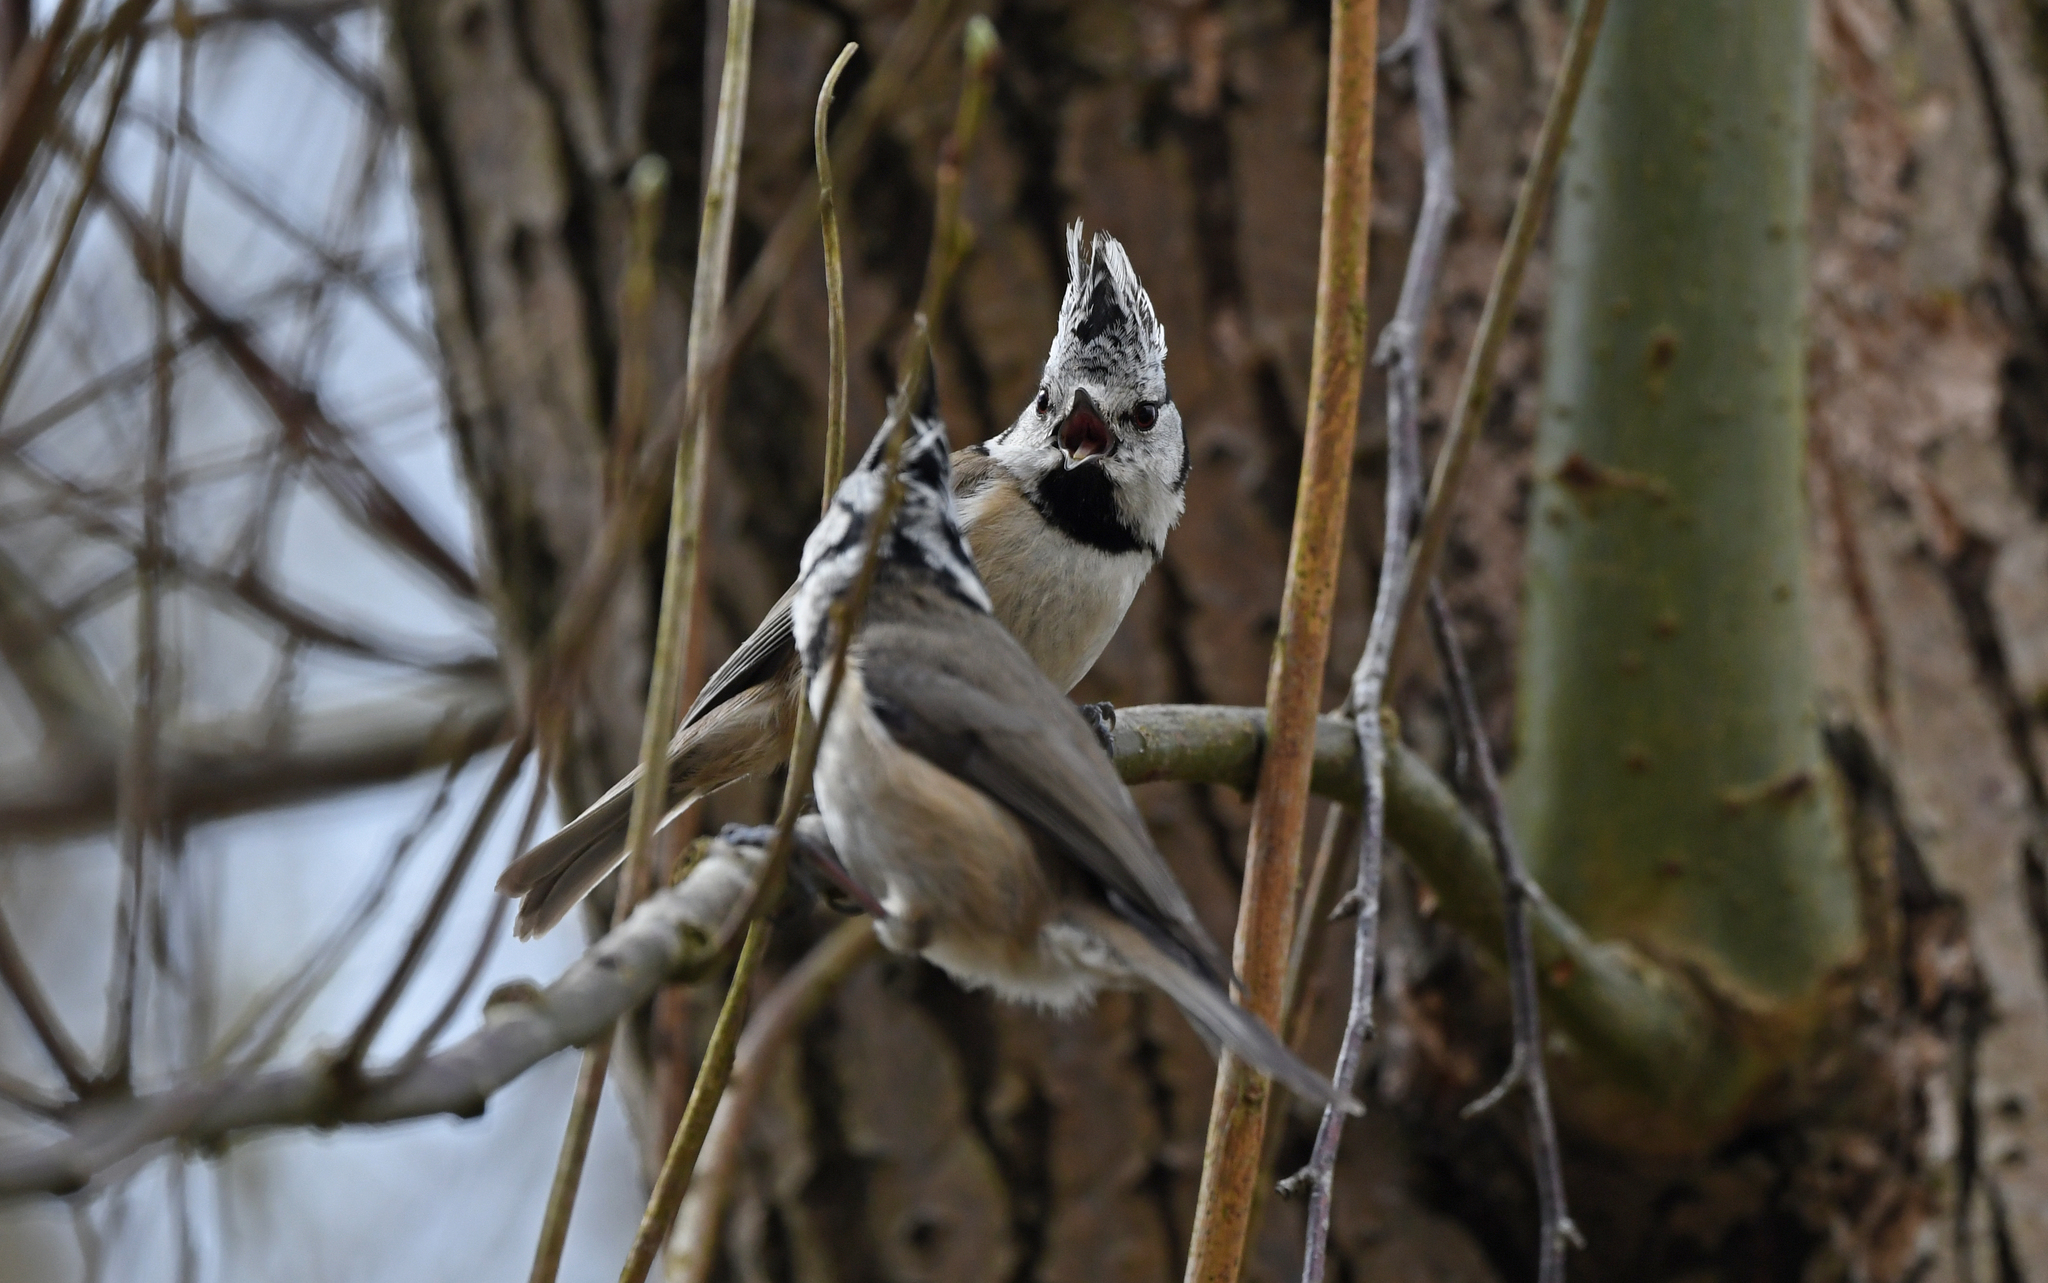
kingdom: Animalia
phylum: Chordata
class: Aves
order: Passeriformes
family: Paridae
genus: Lophophanes
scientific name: Lophophanes cristatus
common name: European crested tit
